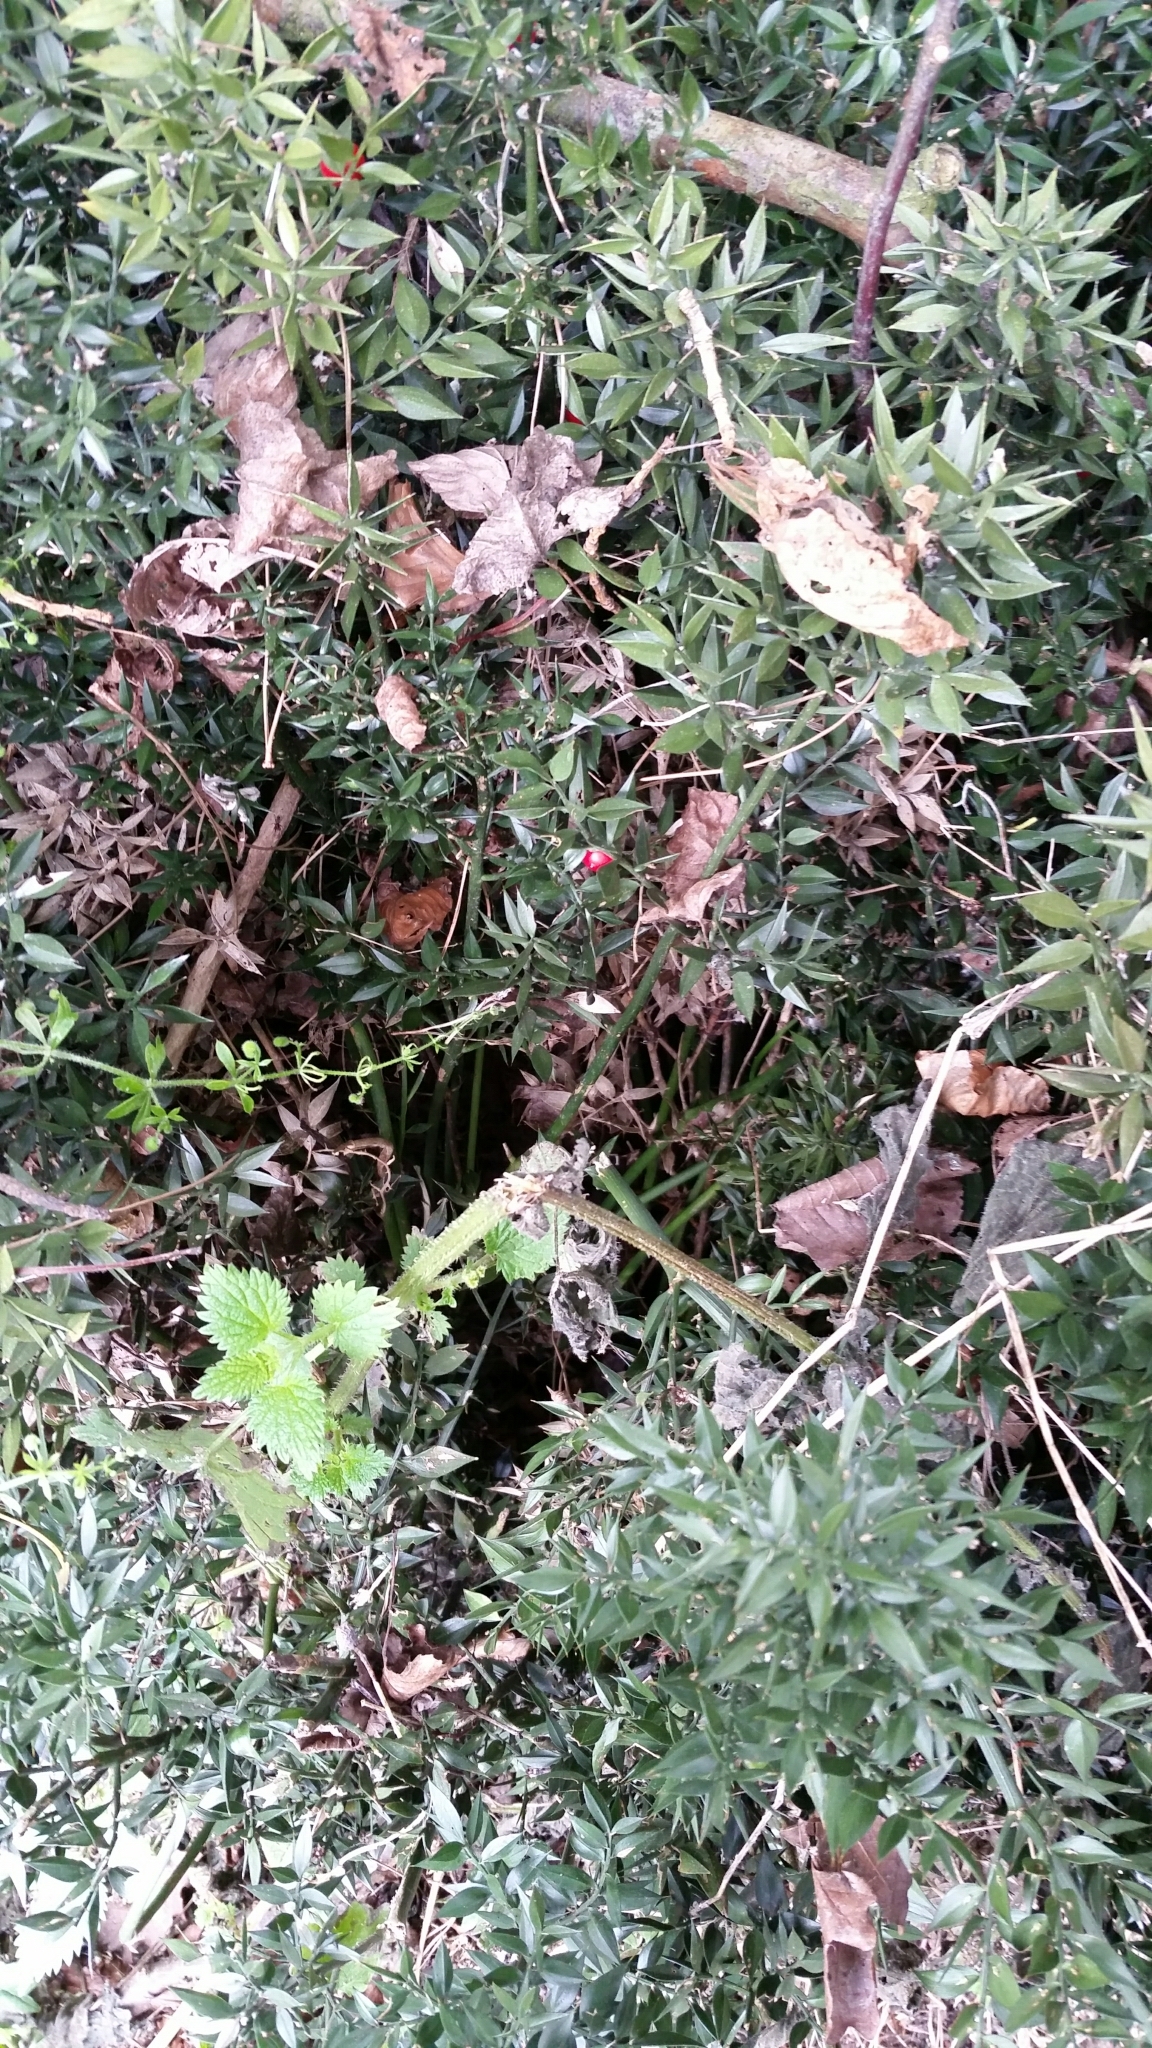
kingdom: Plantae
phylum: Tracheophyta
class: Liliopsida
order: Asparagales
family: Asparagaceae
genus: Ruscus
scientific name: Ruscus aculeatus
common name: Butcher's-broom
